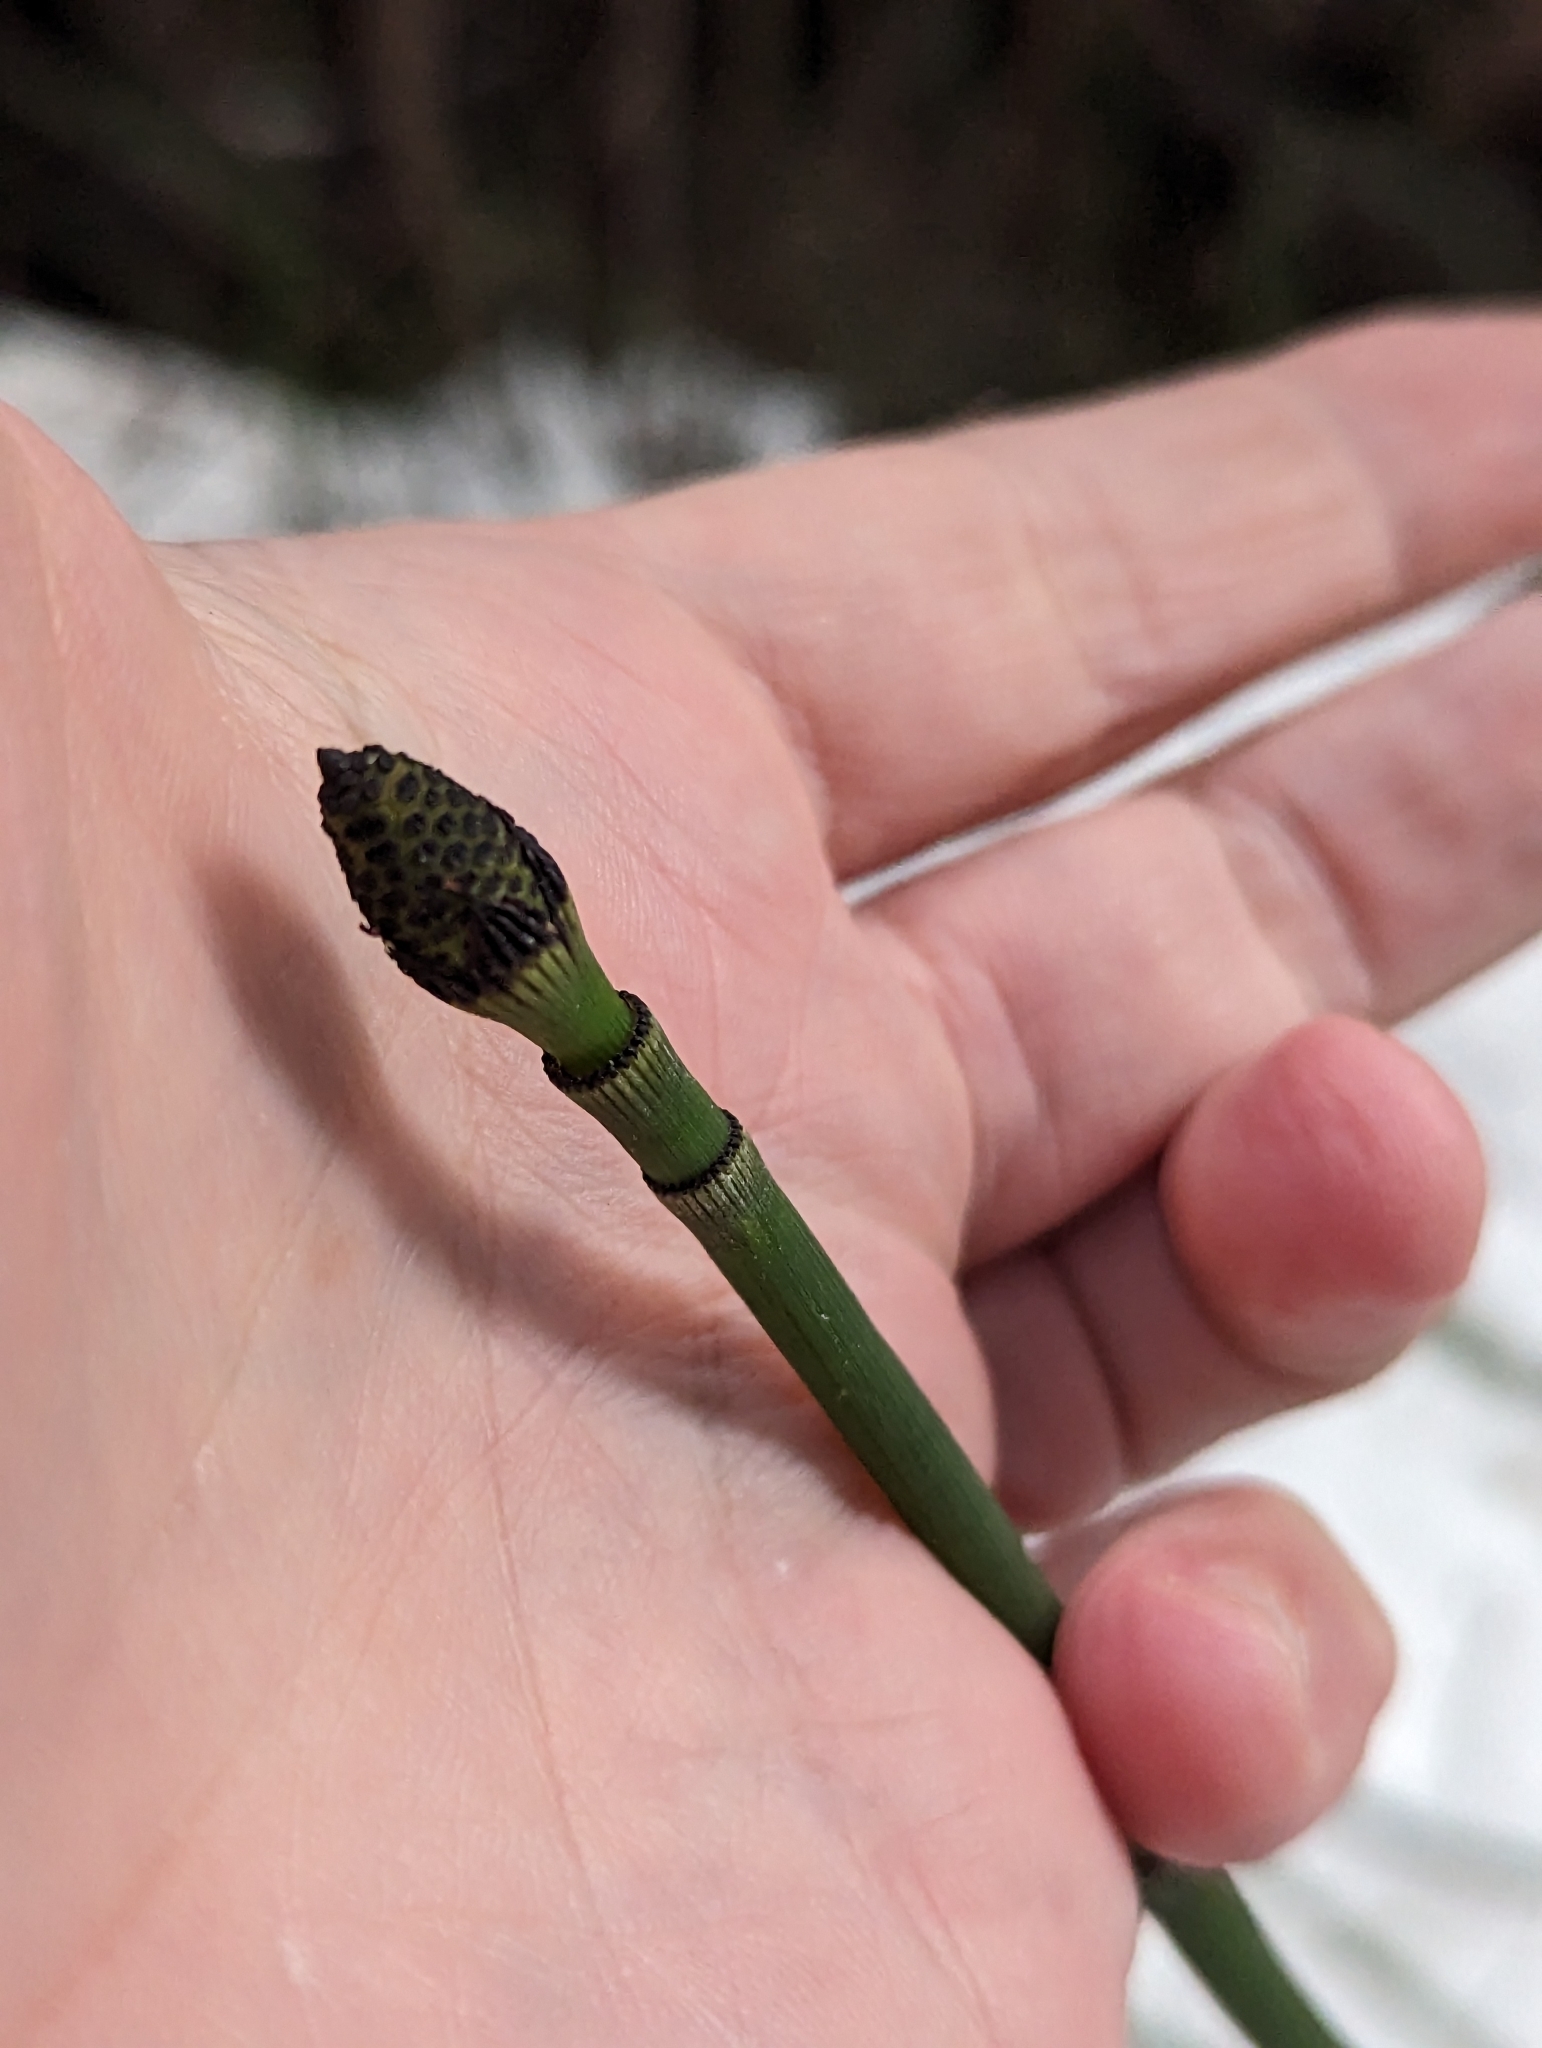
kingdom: Plantae
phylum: Tracheophyta
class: Polypodiopsida
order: Equisetales
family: Equisetaceae
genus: Equisetum
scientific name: Equisetum praealtum
